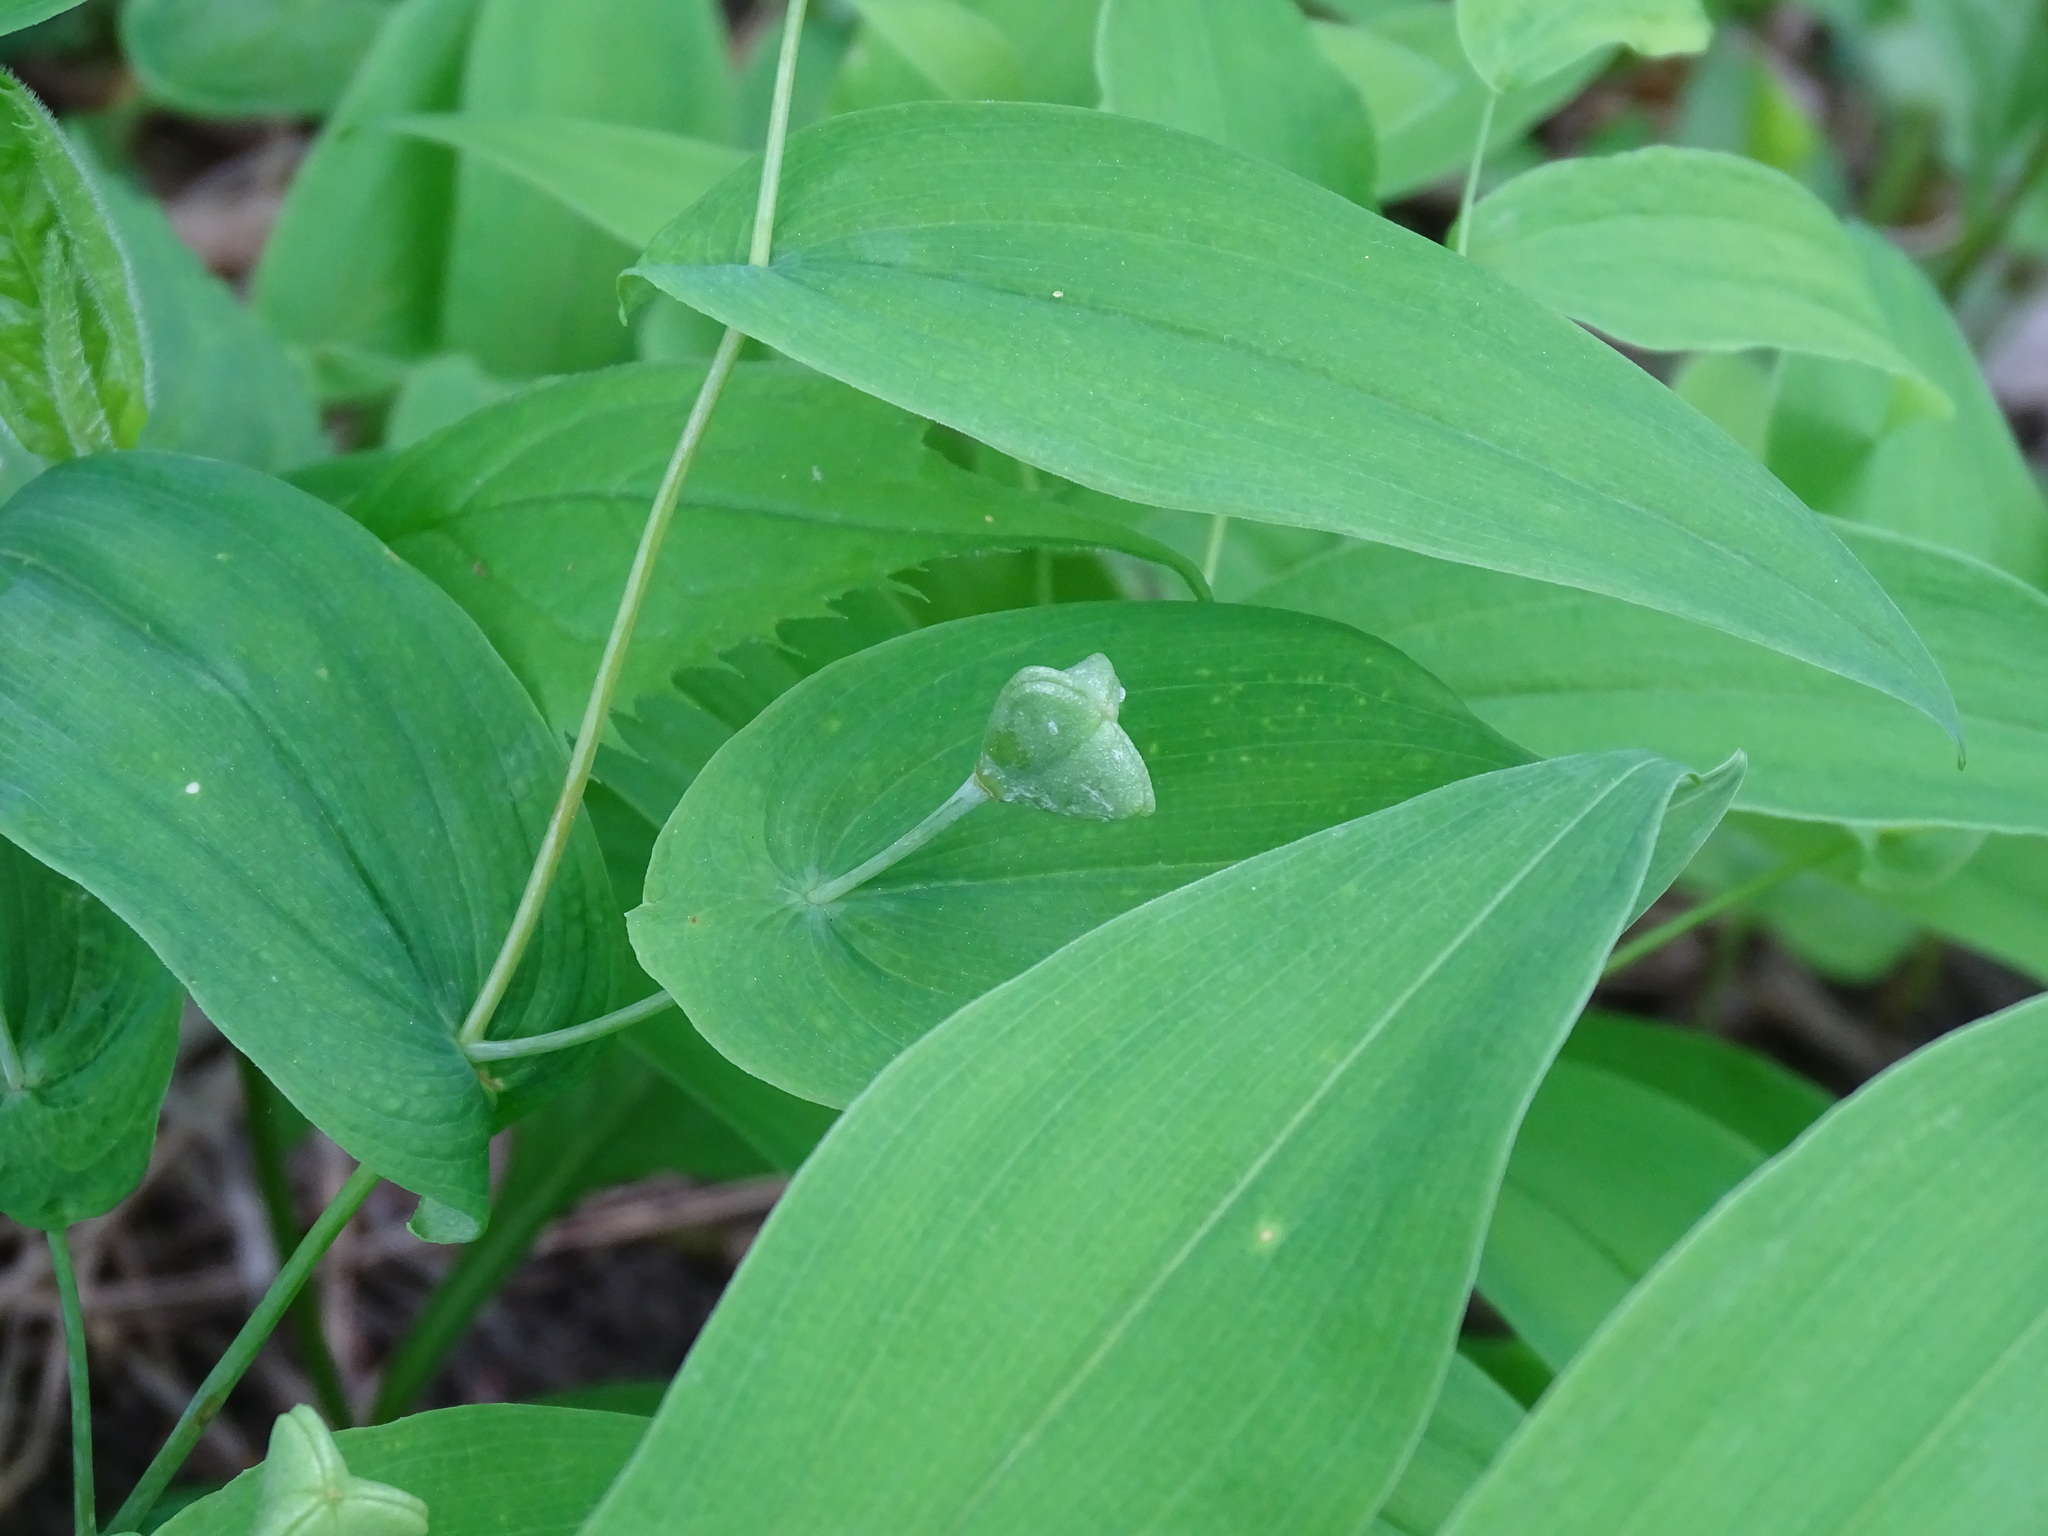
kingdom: Plantae
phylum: Tracheophyta
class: Liliopsida
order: Liliales
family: Colchicaceae
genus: Uvularia
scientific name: Uvularia grandiflora
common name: Bellwort
